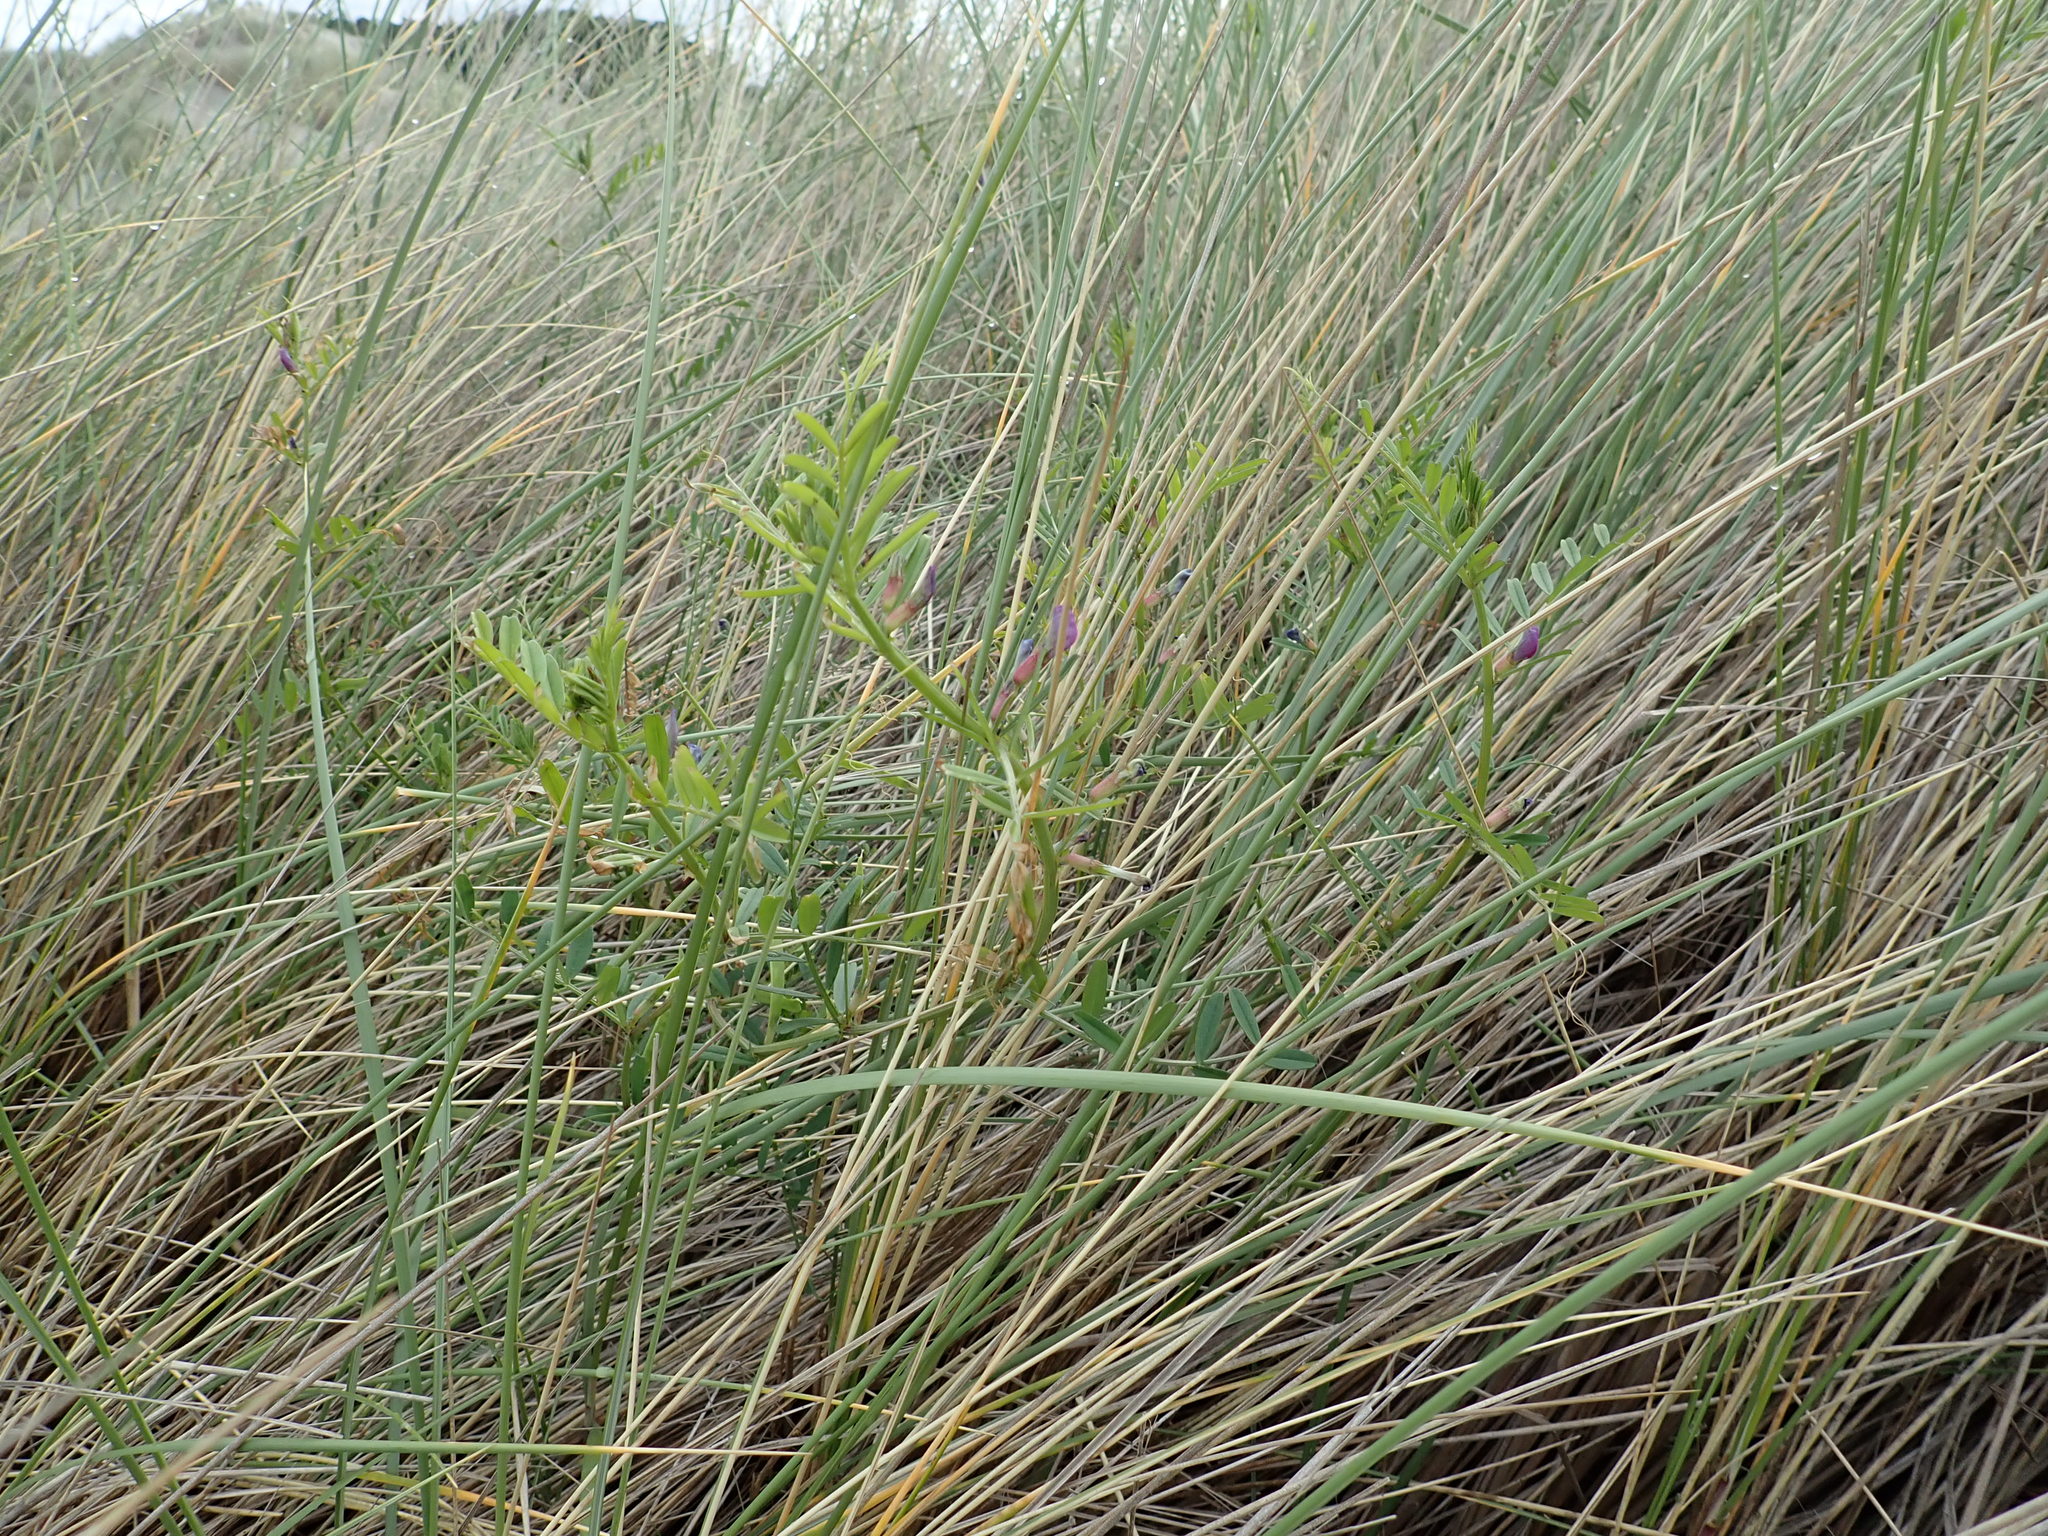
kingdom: Plantae
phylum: Tracheophyta
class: Magnoliopsida
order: Fabales
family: Fabaceae
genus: Vicia
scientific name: Vicia sativa
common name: Garden vetch
